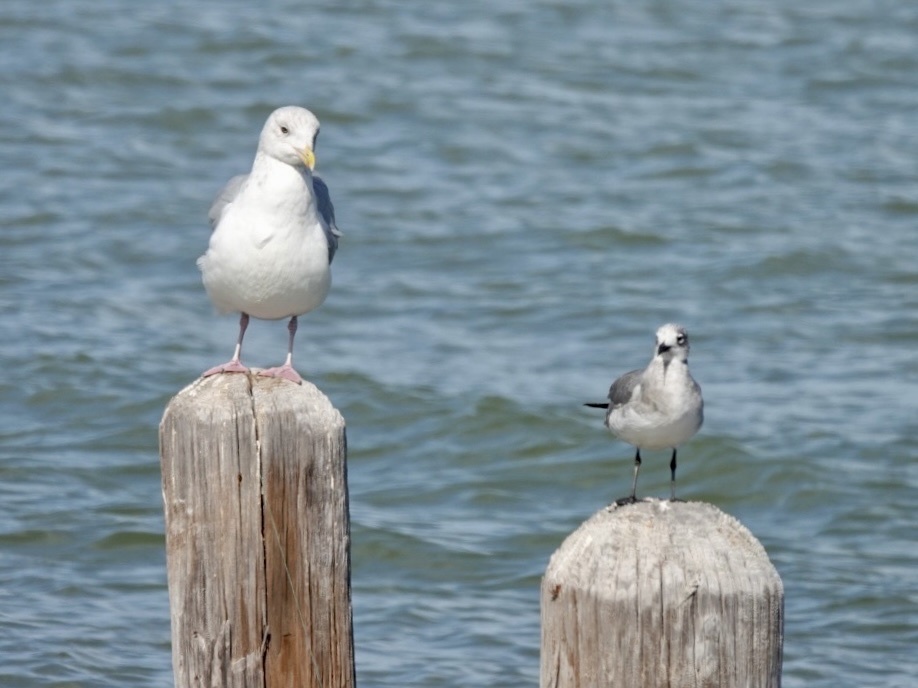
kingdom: Animalia
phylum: Chordata
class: Aves
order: Charadriiformes
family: Laridae
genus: Larus
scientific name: Larus argentatus
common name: Herring gull
